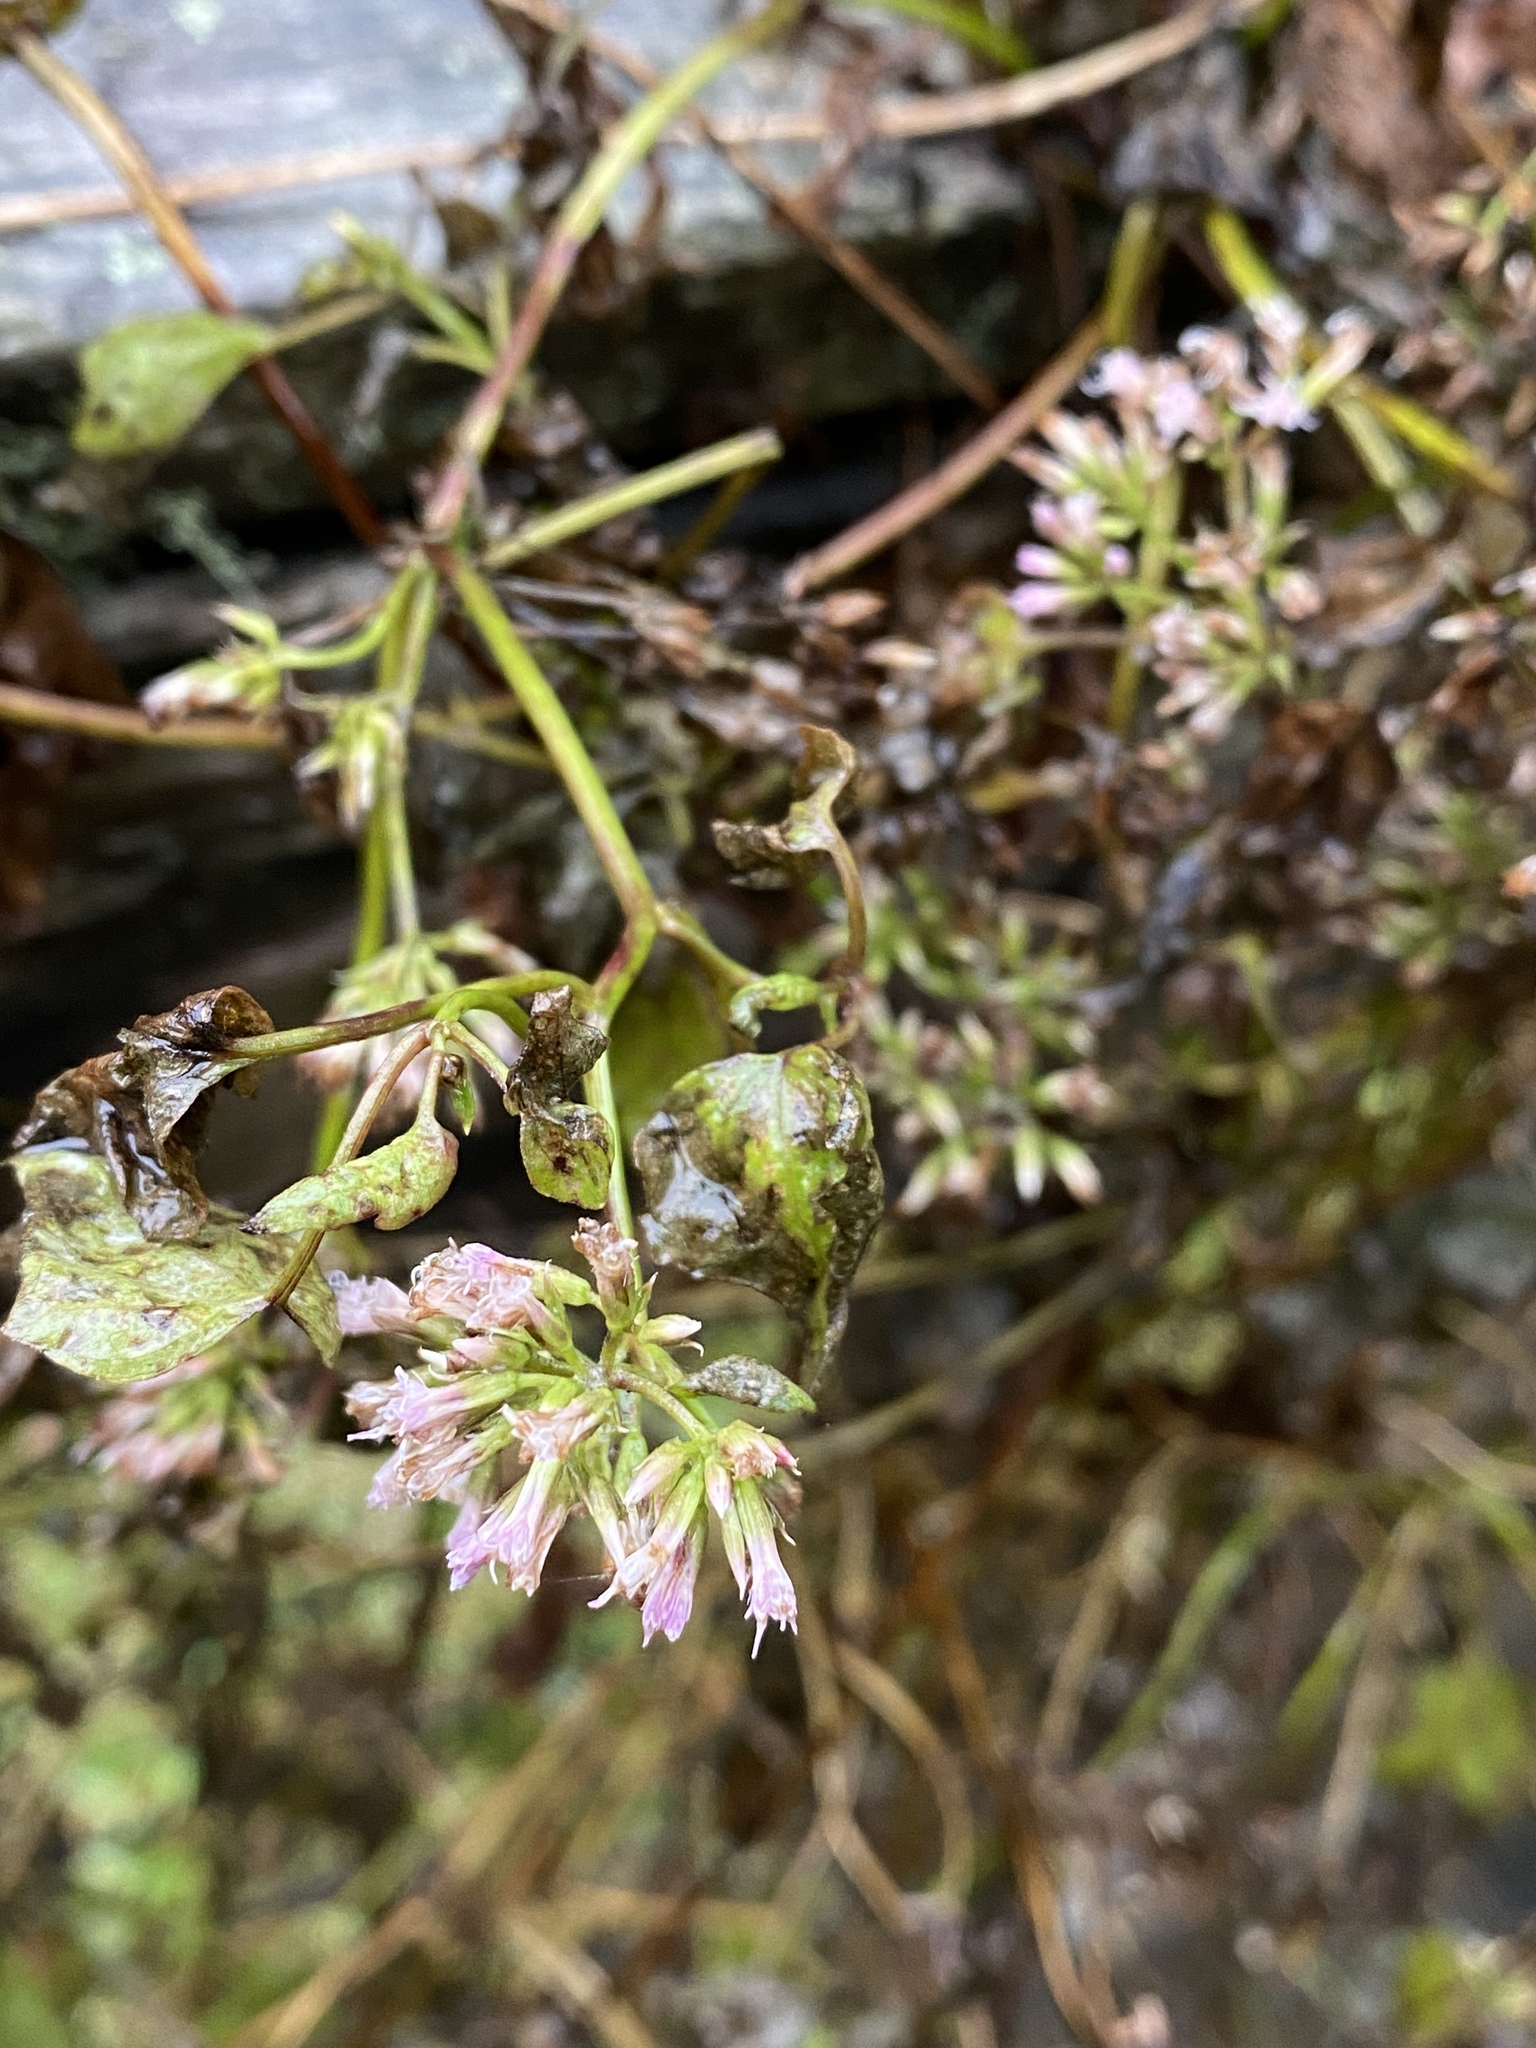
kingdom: Plantae
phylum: Tracheophyta
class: Magnoliopsida
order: Asterales
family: Asteraceae
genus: Mikania
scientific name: Mikania scandens
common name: Climbing hempvine
